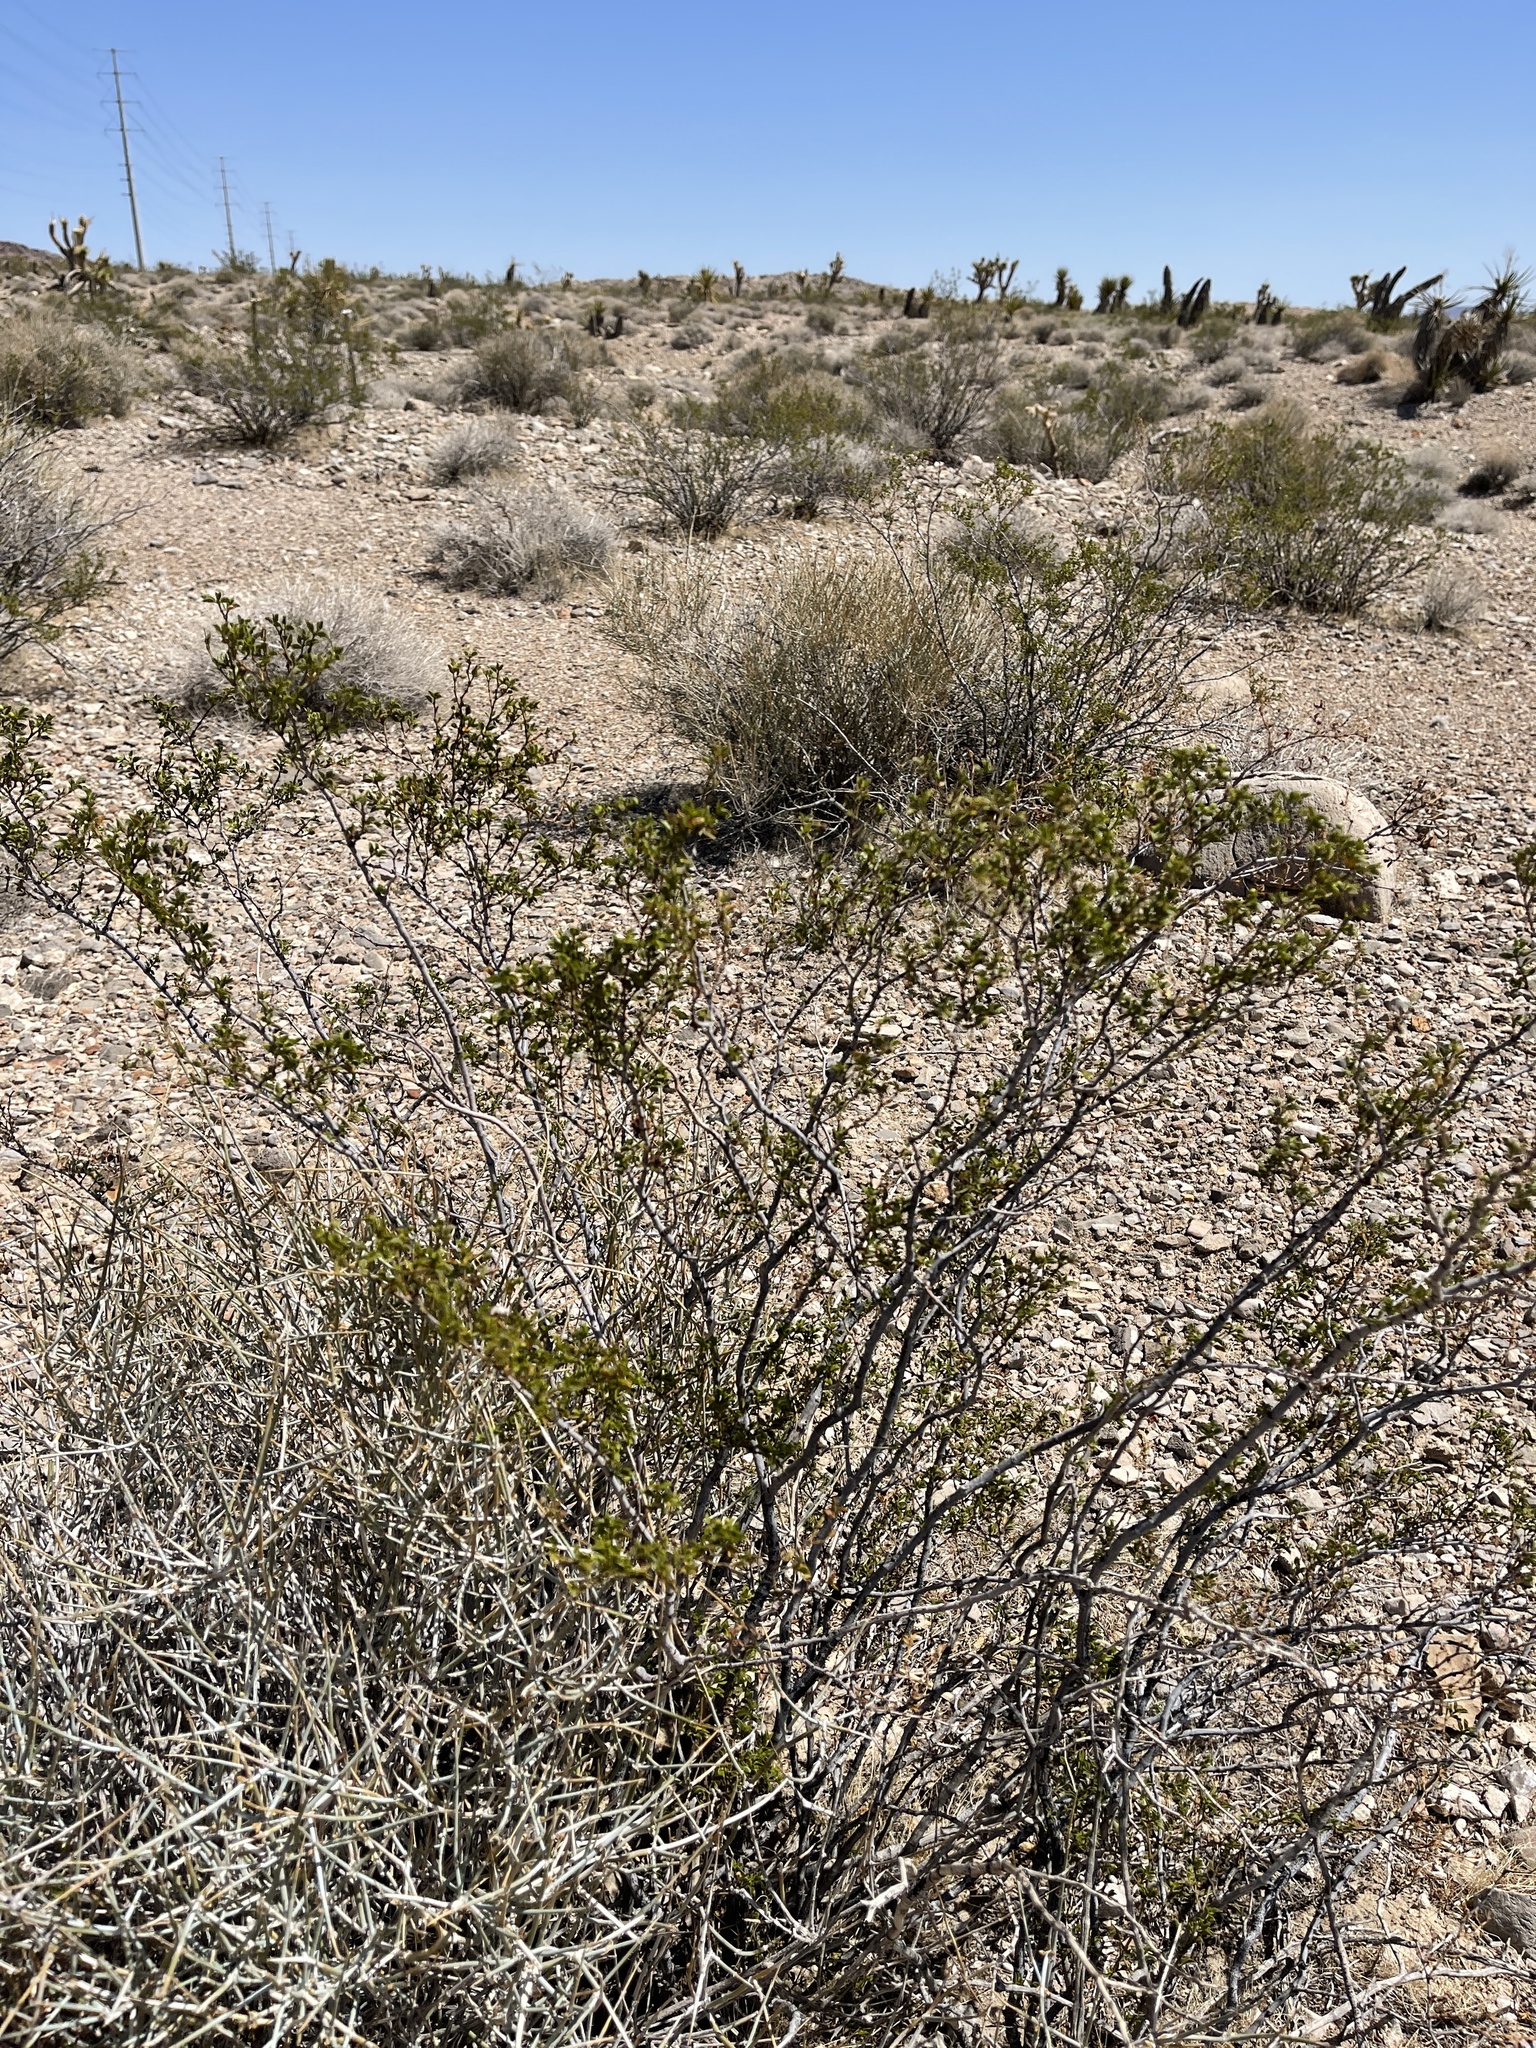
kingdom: Plantae
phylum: Tracheophyta
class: Magnoliopsida
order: Zygophyllales
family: Zygophyllaceae
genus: Larrea
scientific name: Larrea tridentata
